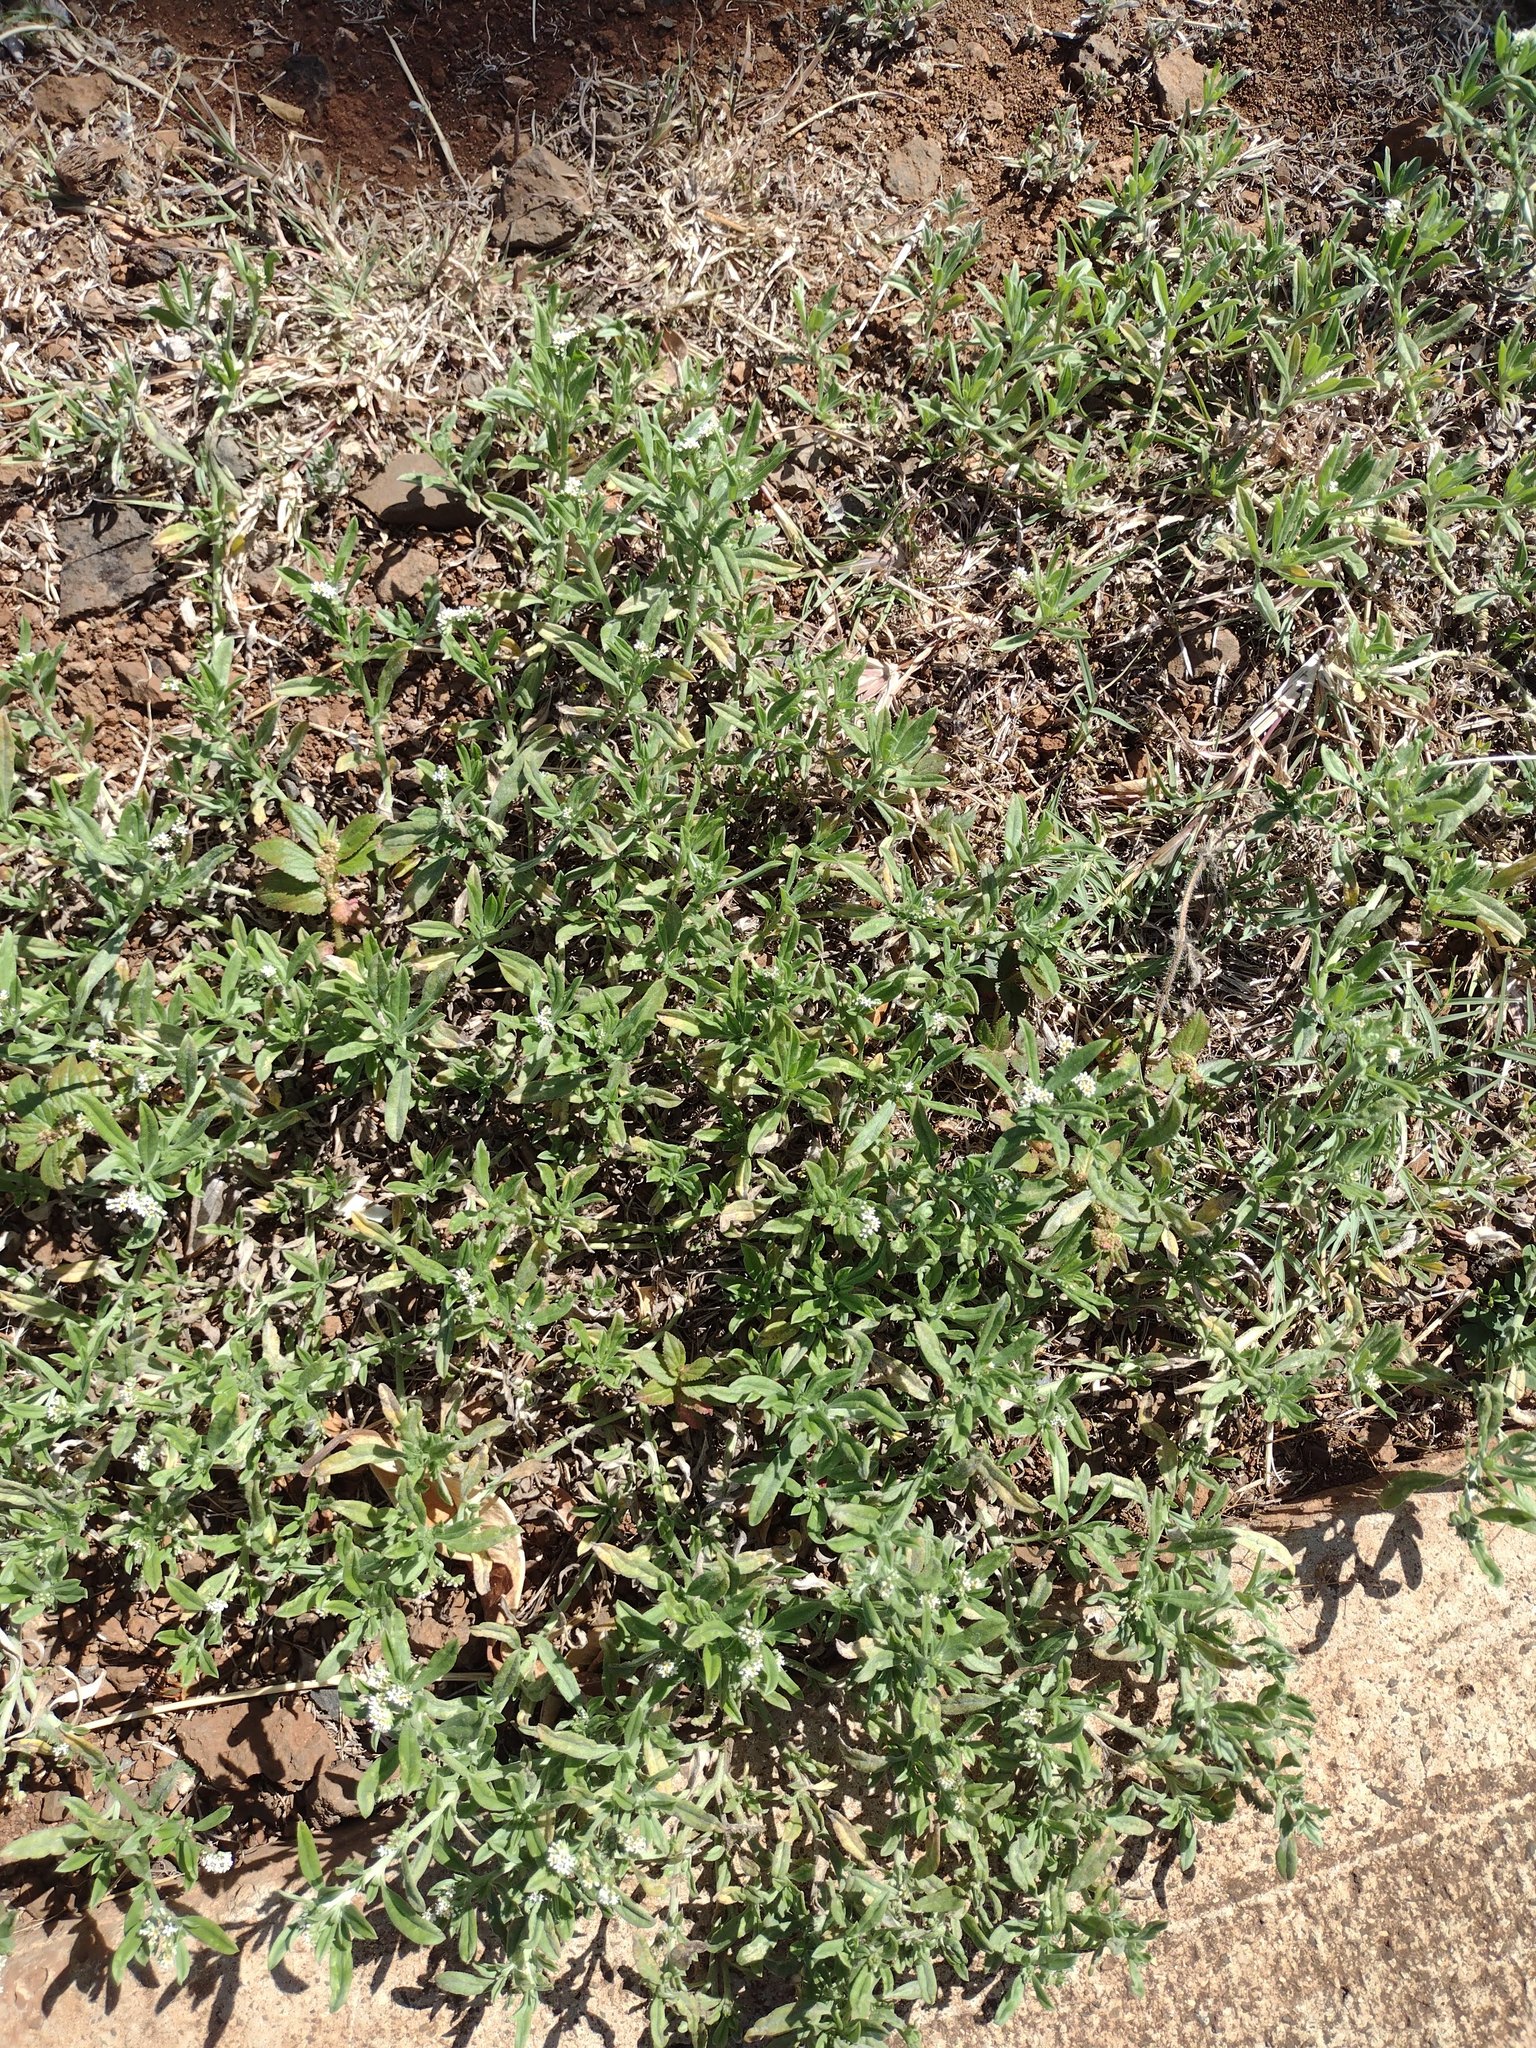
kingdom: Plantae
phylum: Tracheophyta
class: Magnoliopsida
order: Boraginales
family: Heliotropiaceae
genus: Euploca
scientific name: Euploca procumbens
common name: Fourspike heliotrope
